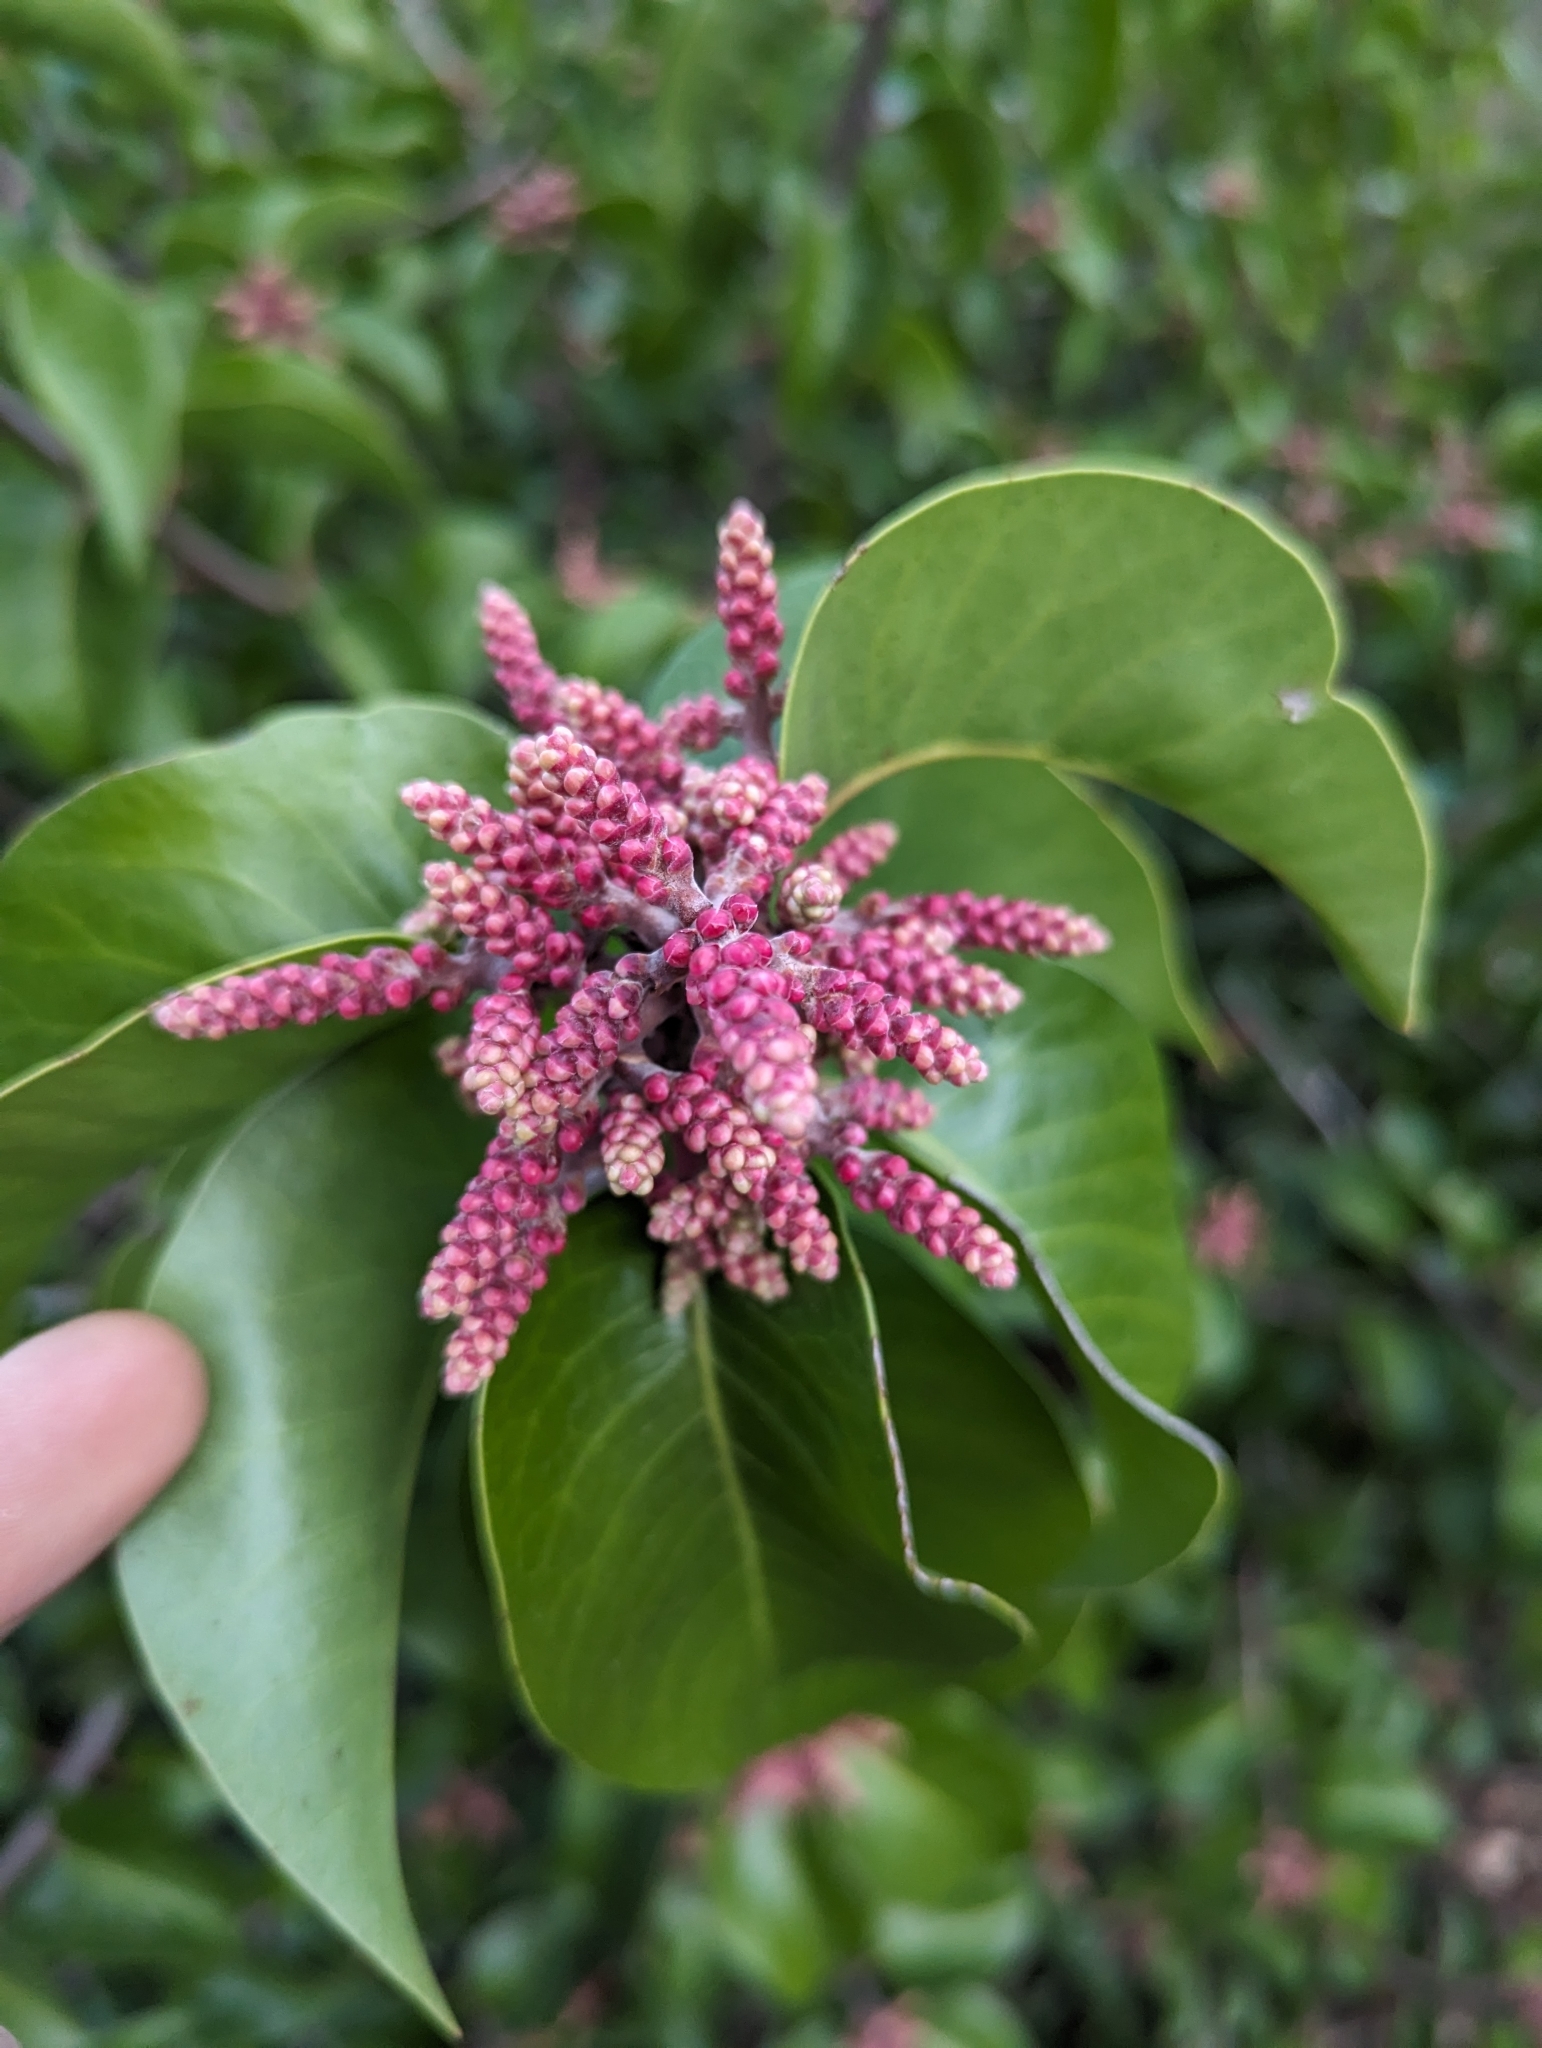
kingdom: Plantae
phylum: Tracheophyta
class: Magnoliopsida
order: Sapindales
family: Anacardiaceae
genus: Rhus
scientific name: Rhus ovata
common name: Sugar sumac
